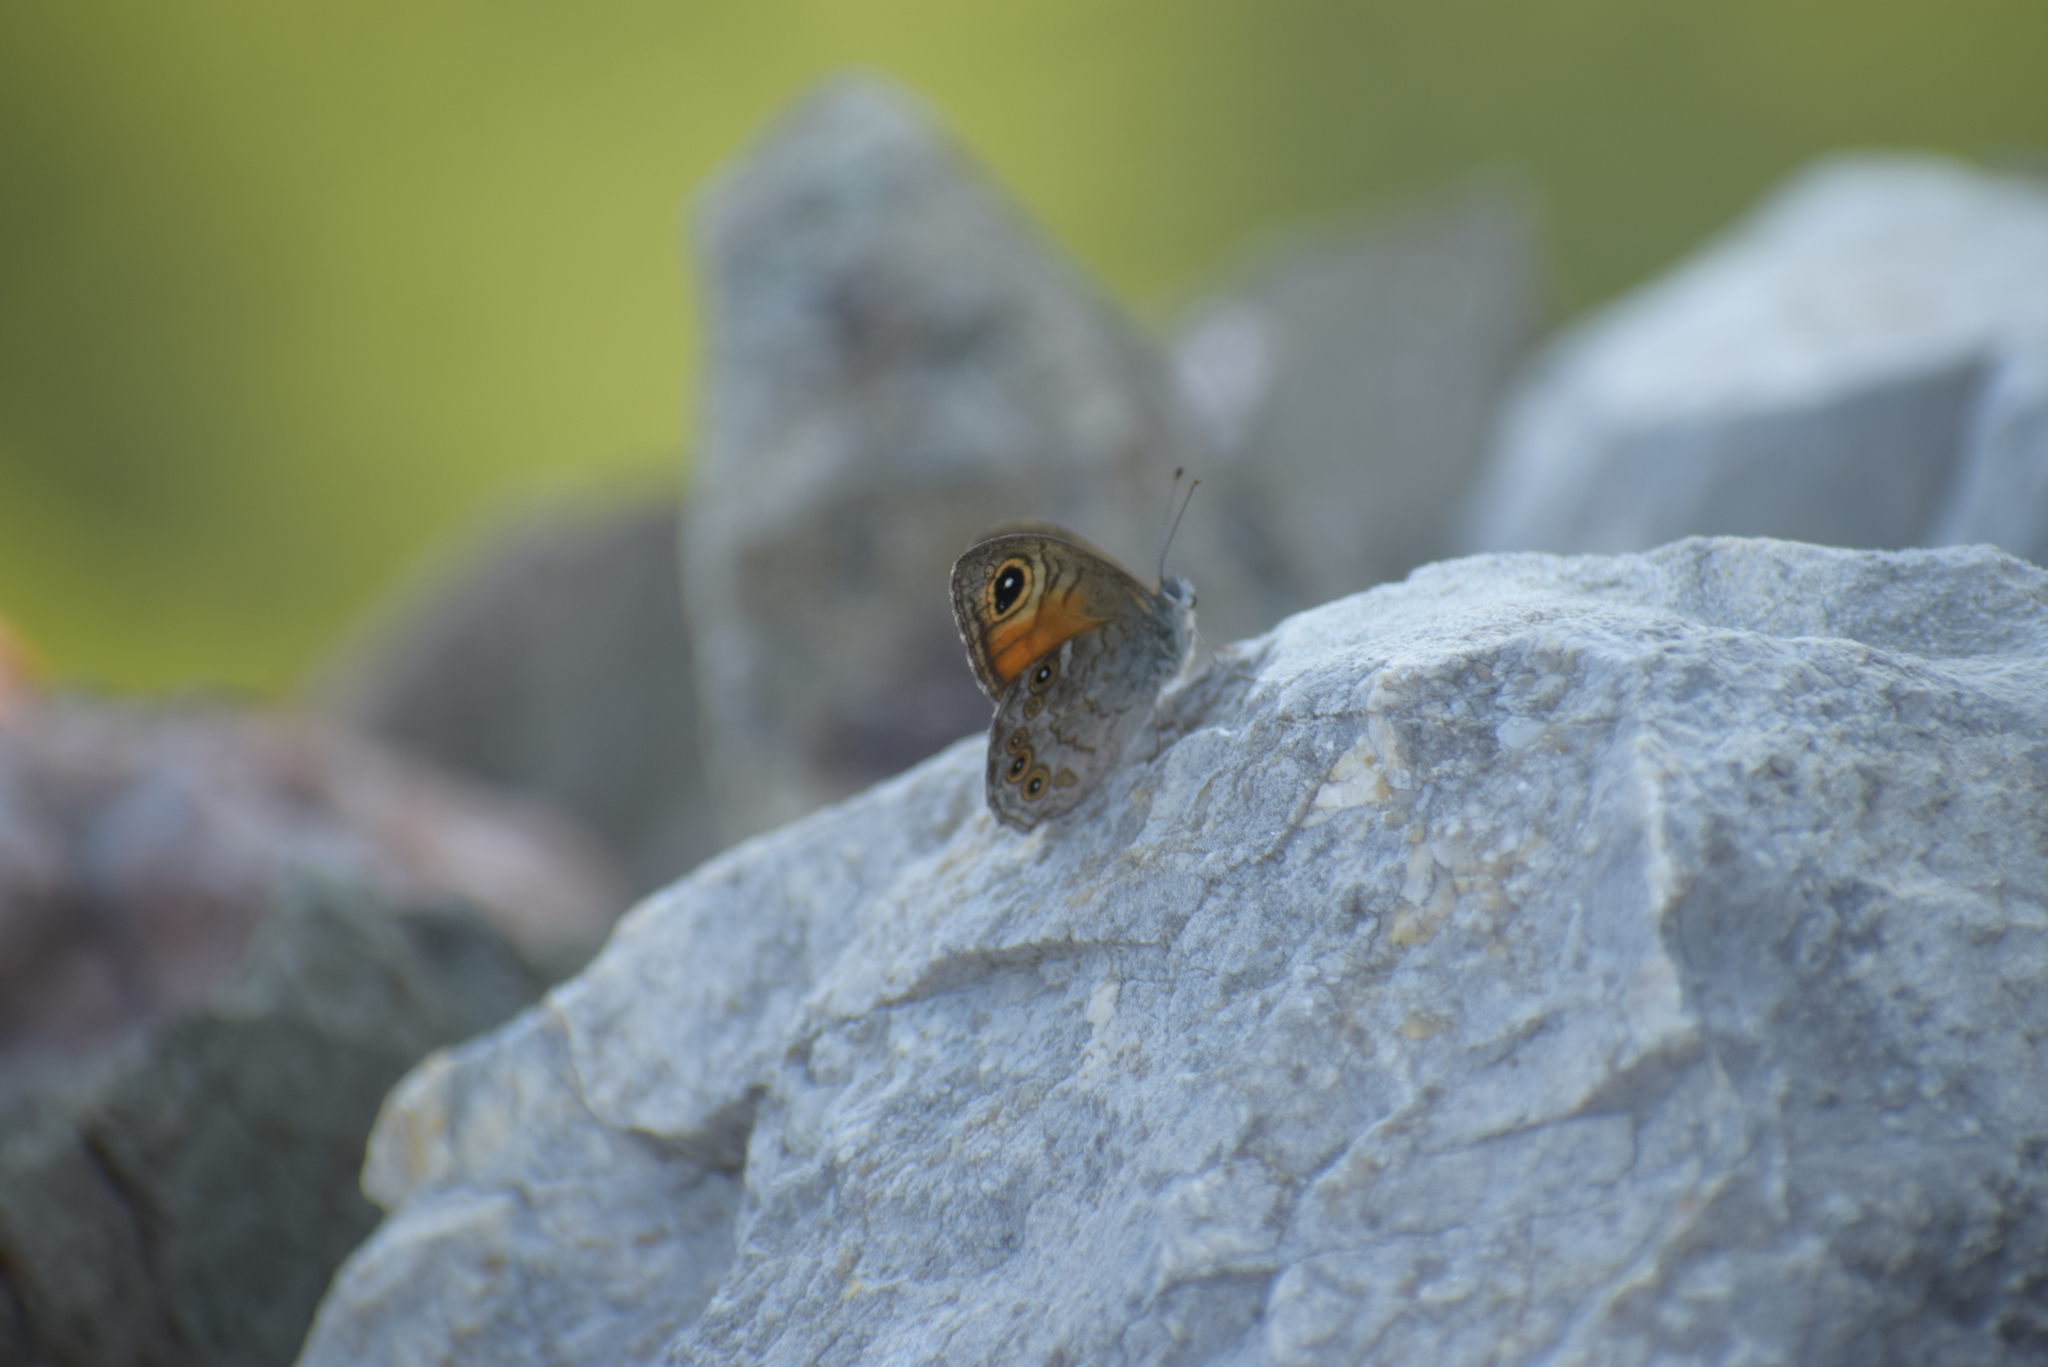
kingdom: Animalia
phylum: Arthropoda
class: Insecta
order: Lepidoptera
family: Nymphalidae
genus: Pararge
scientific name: Pararge Lasiommata maera
